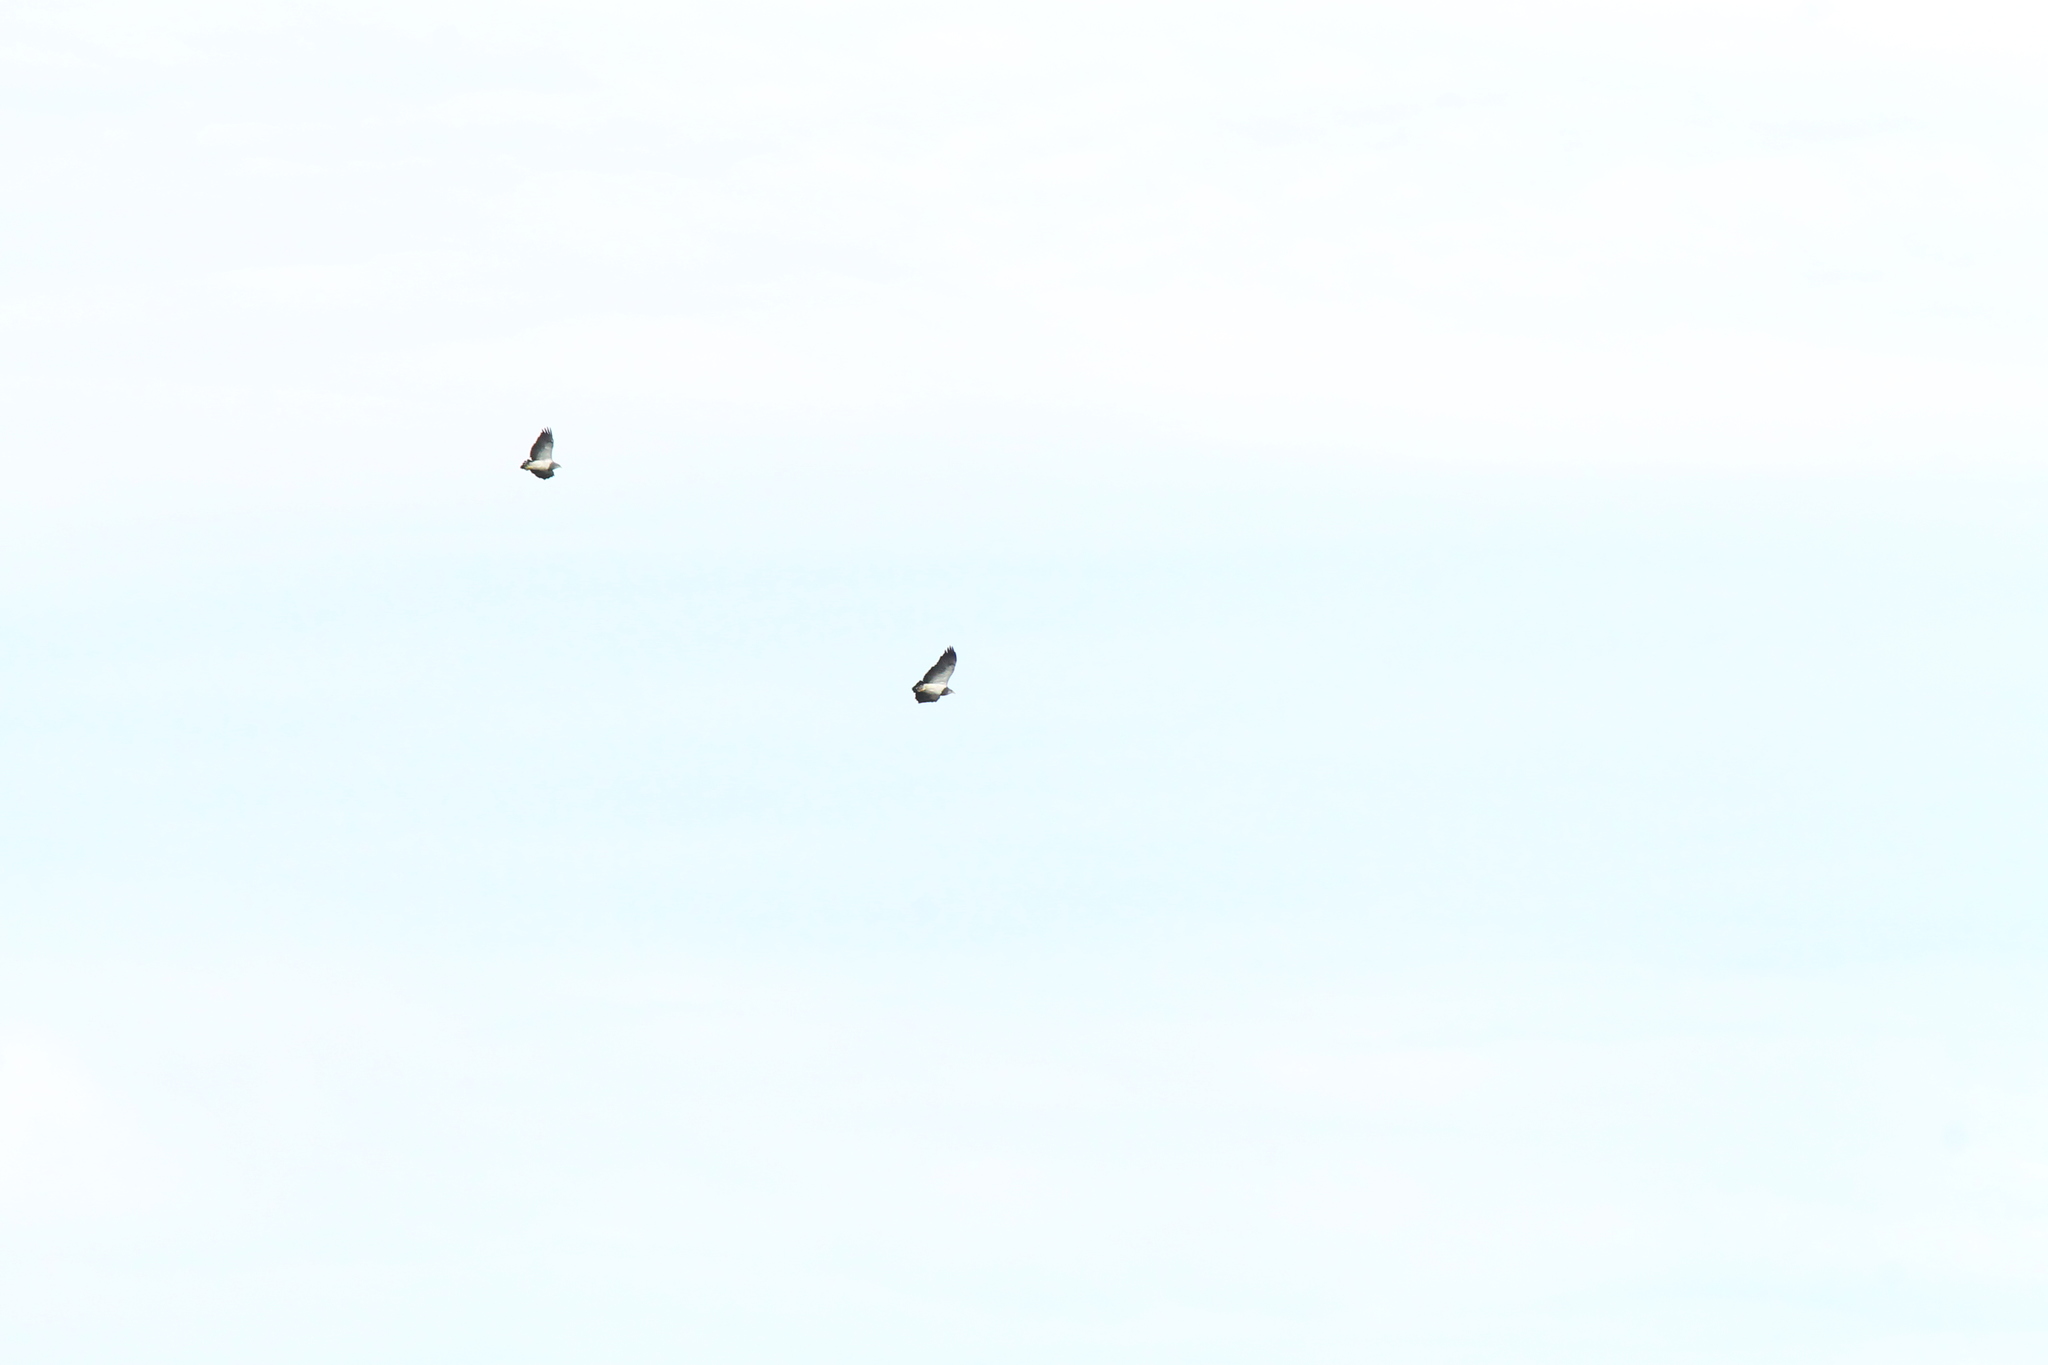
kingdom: Animalia
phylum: Chordata
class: Aves
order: Accipitriformes
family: Accipitridae
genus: Geranoaetus
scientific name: Geranoaetus melanoleucus
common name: Black-chested buzzard-eagle
